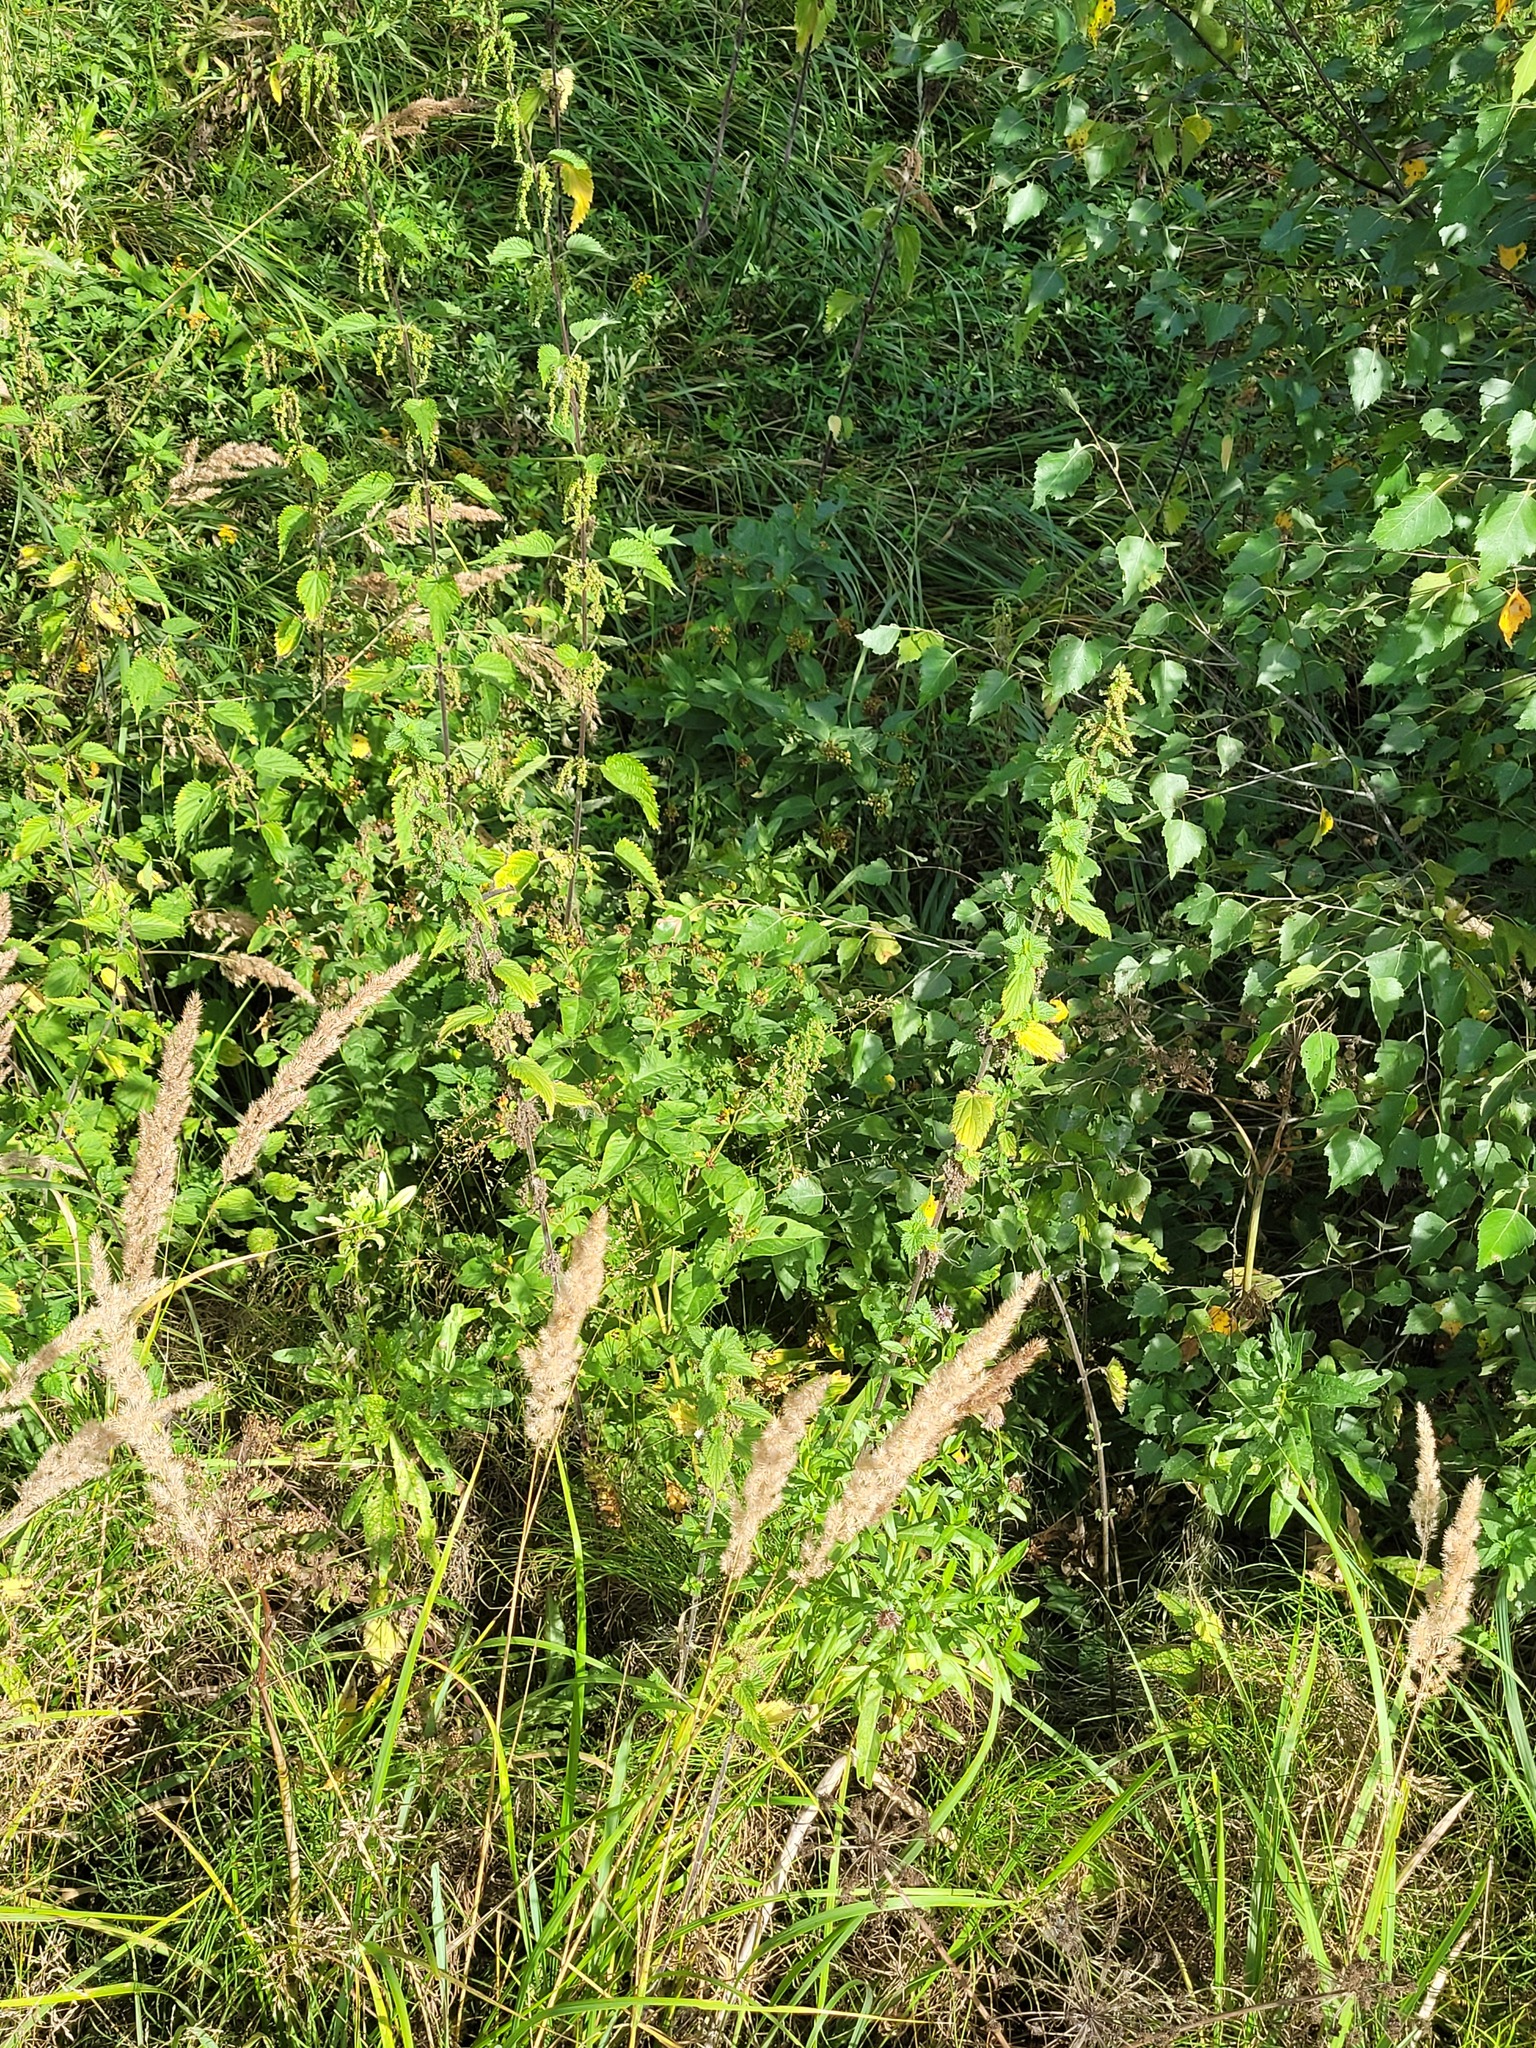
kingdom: Plantae
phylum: Tracheophyta
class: Magnoliopsida
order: Ericales
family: Primulaceae
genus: Lysimachia
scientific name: Lysimachia vulgaris
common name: Yellow loosestrife
